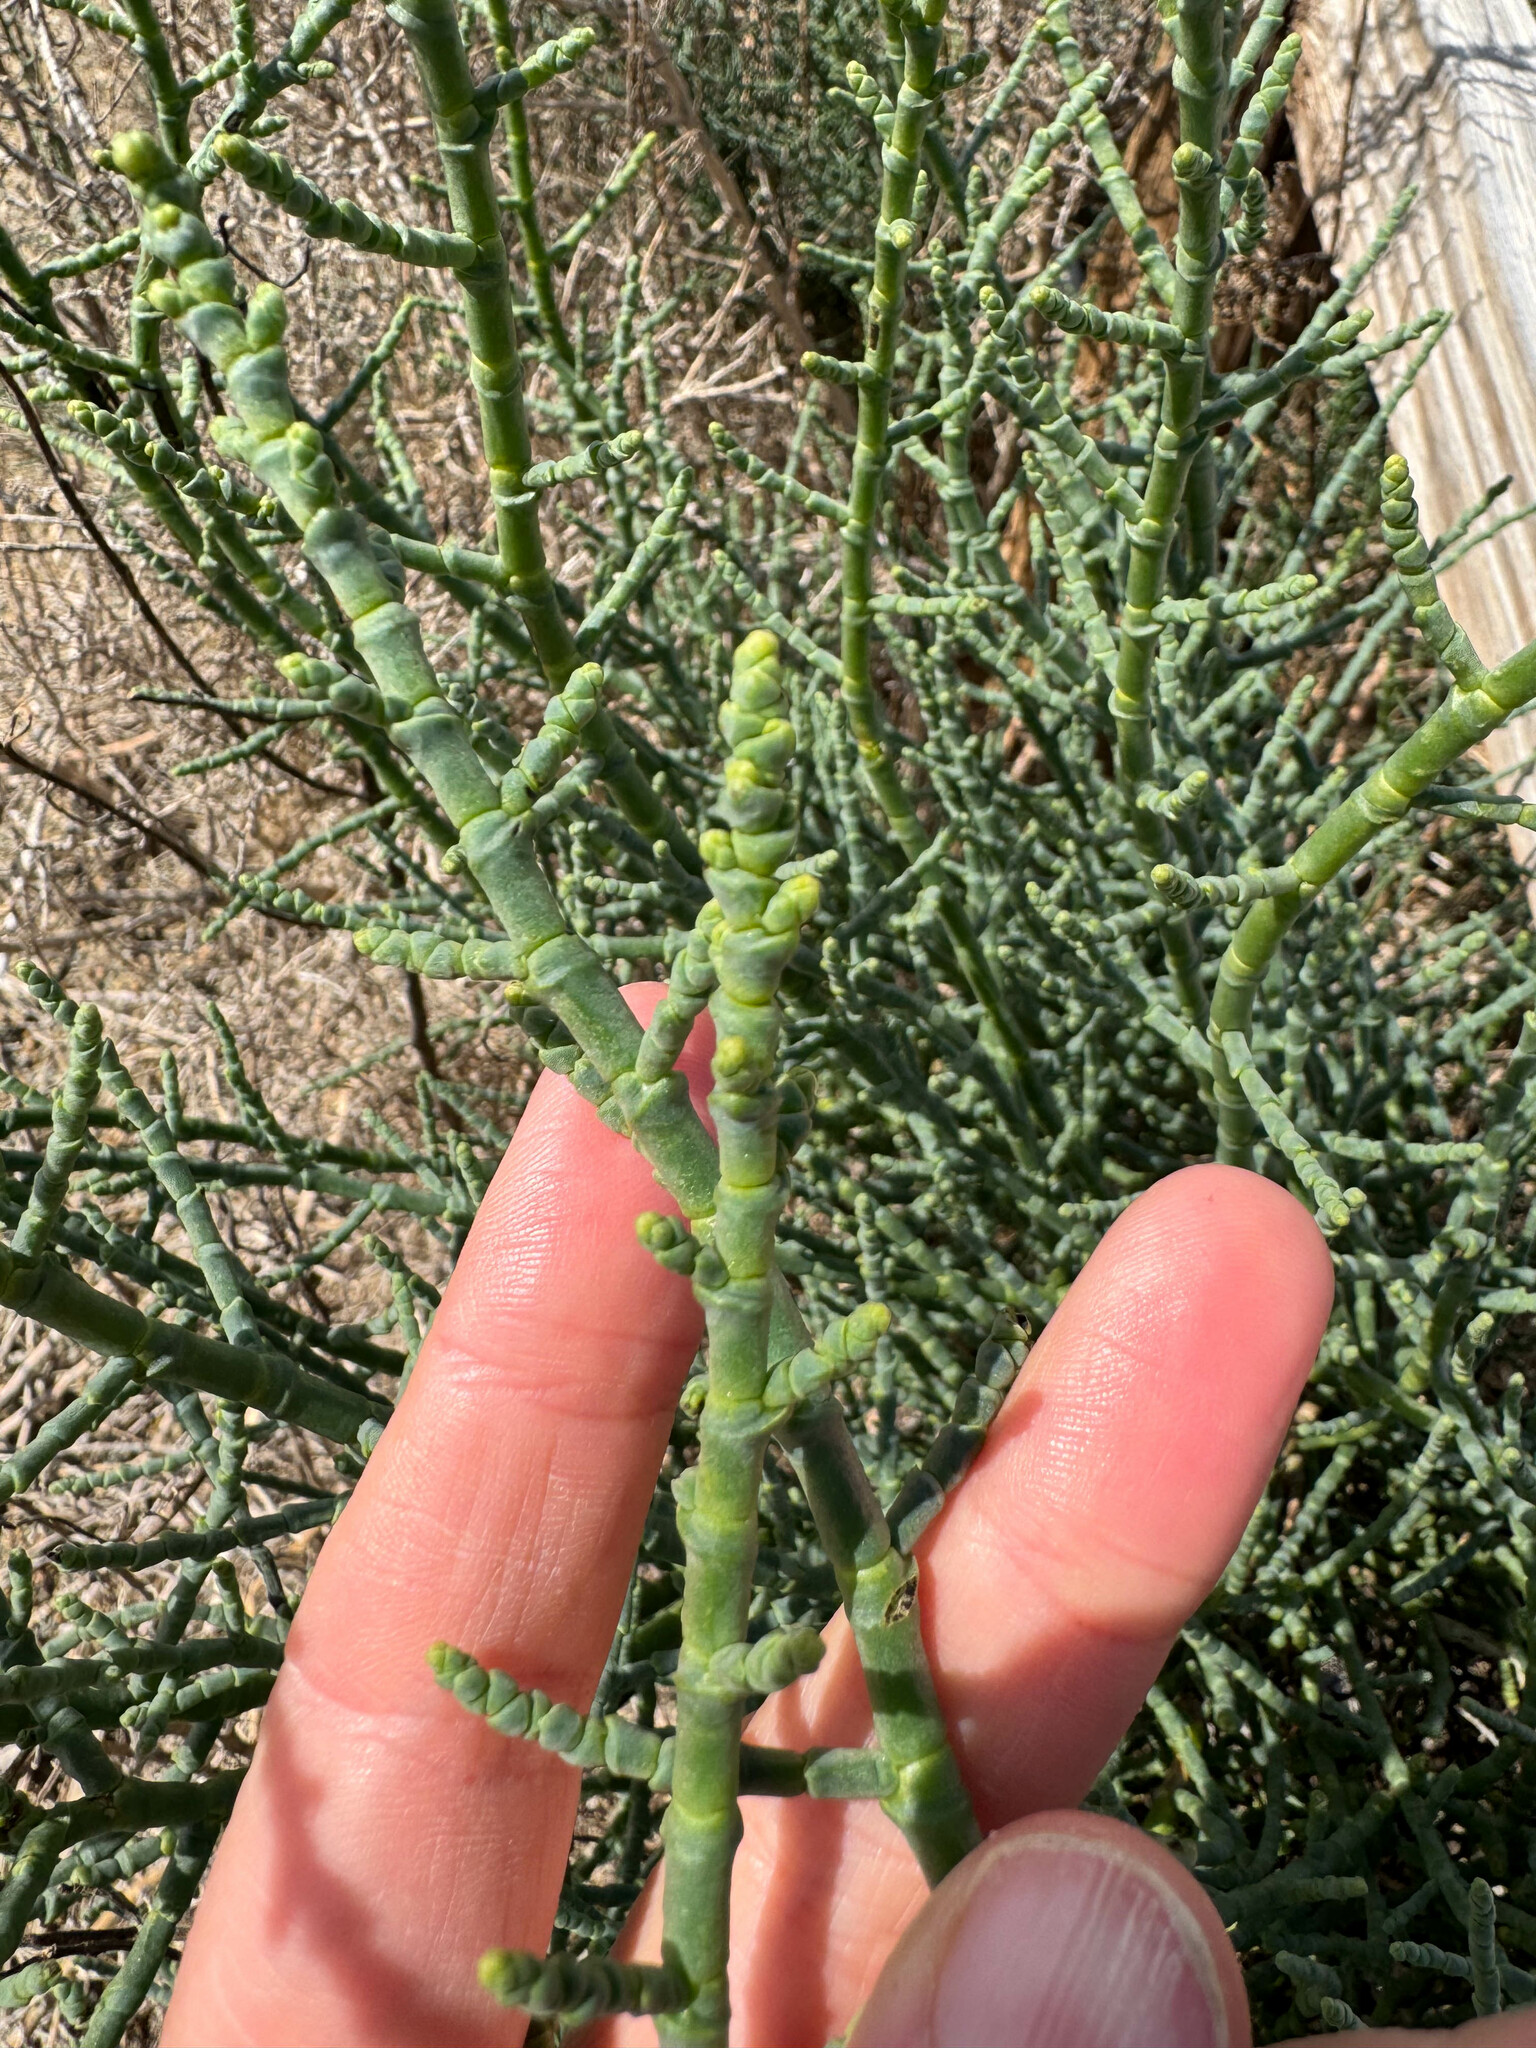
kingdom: Plantae
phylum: Tracheophyta
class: Magnoliopsida
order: Caryophyllales
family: Amaranthaceae
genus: Allenrolfea
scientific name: Allenrolfea occidentalis
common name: Iodine-bush
